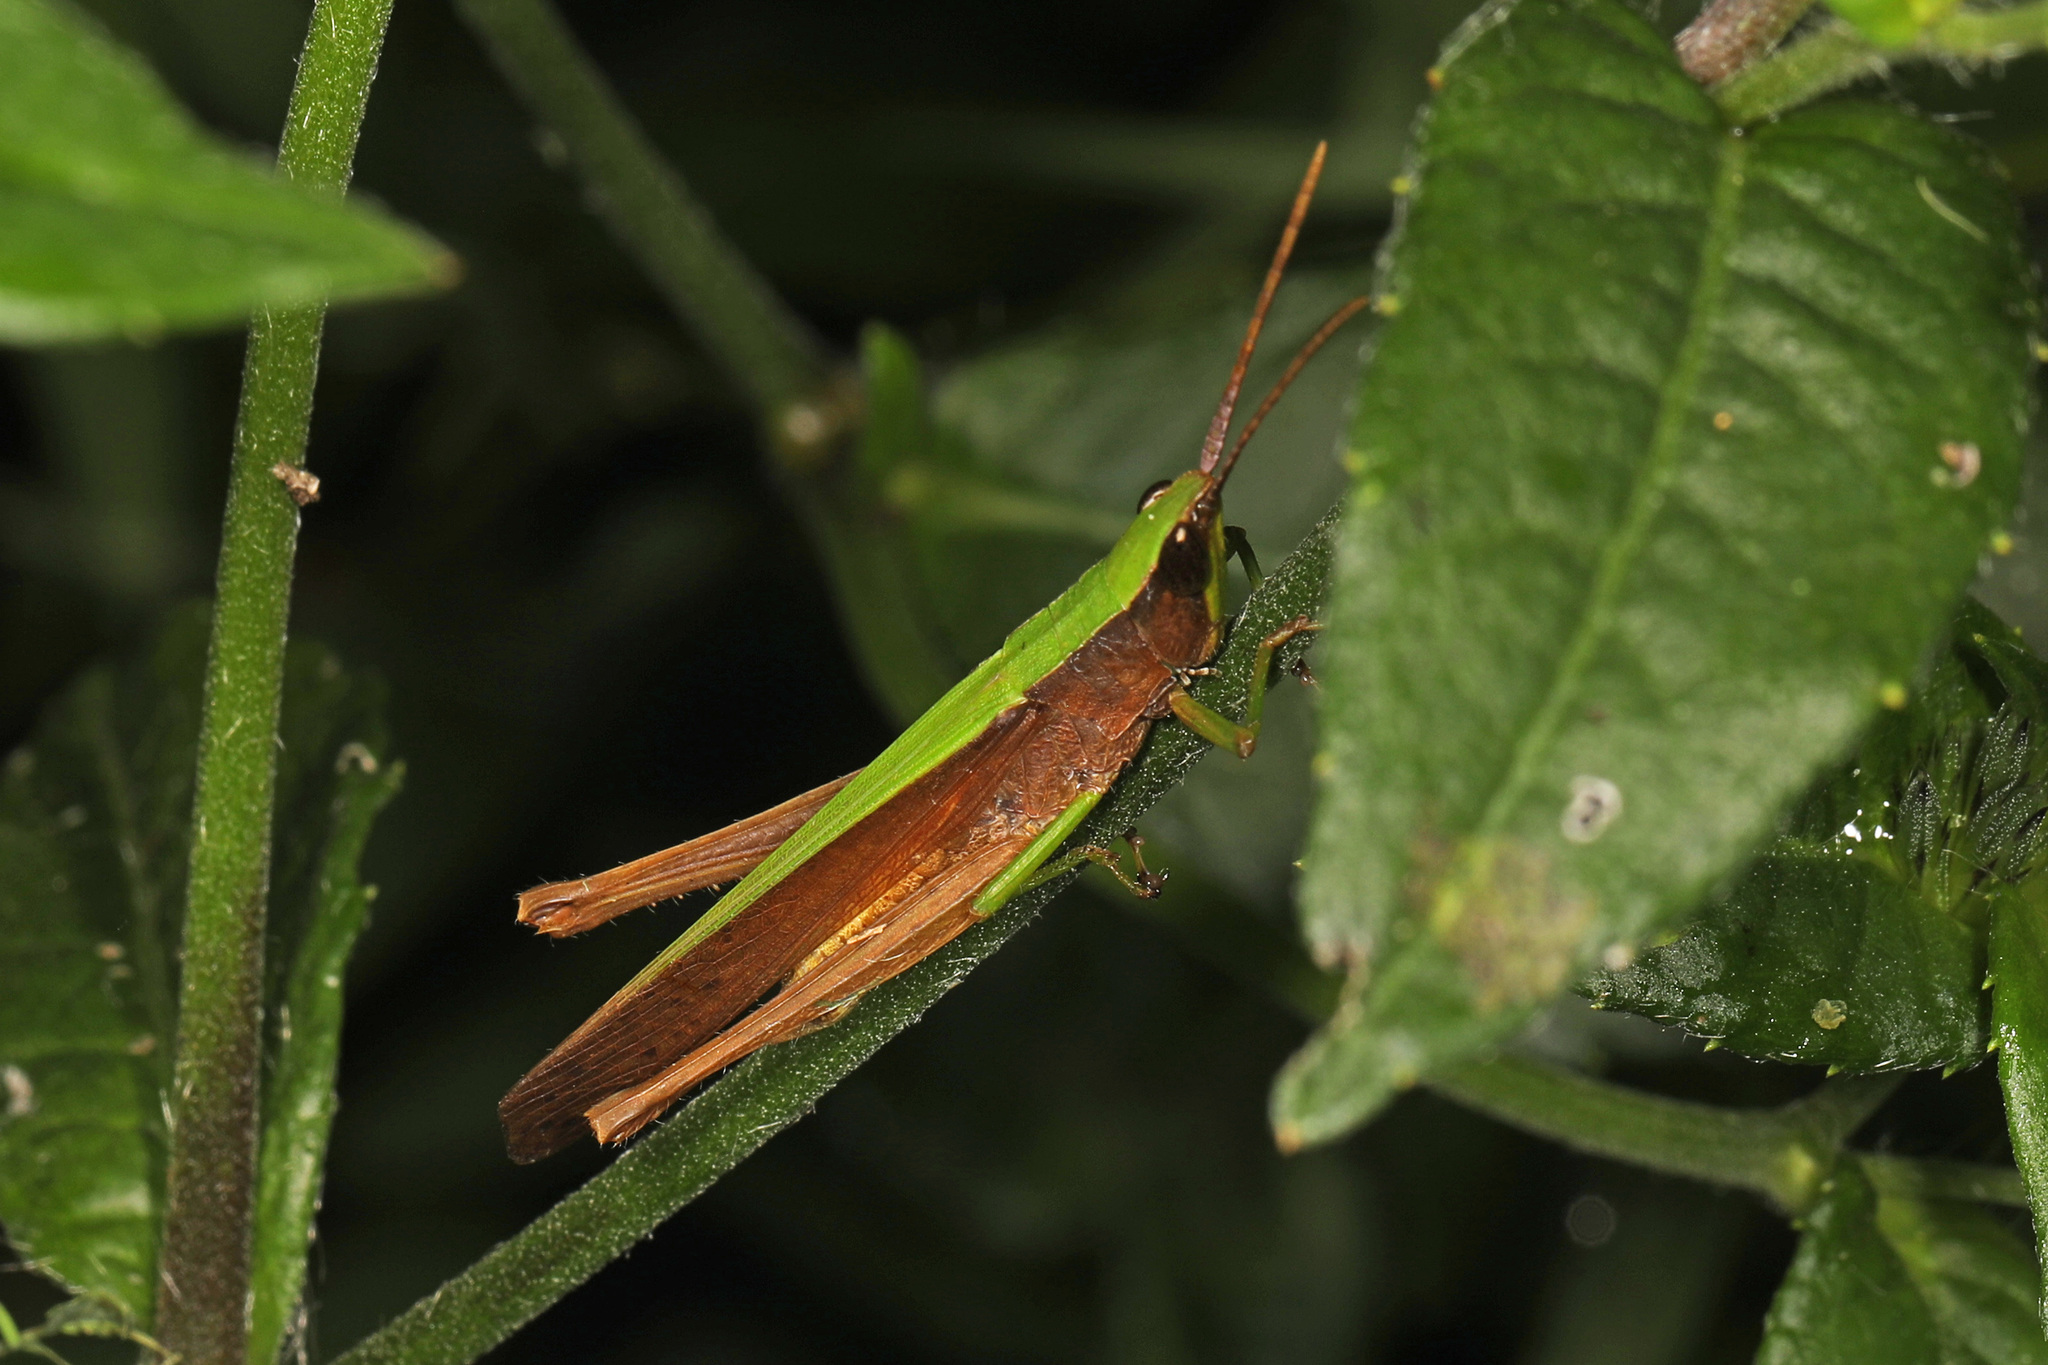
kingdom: Animalia
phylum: Arthropoda
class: Insecta
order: Orthoptera
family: Acrididae
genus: Metaleptea
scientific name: Metaleptea brevicornis
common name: Clipped-wing grasshopper
